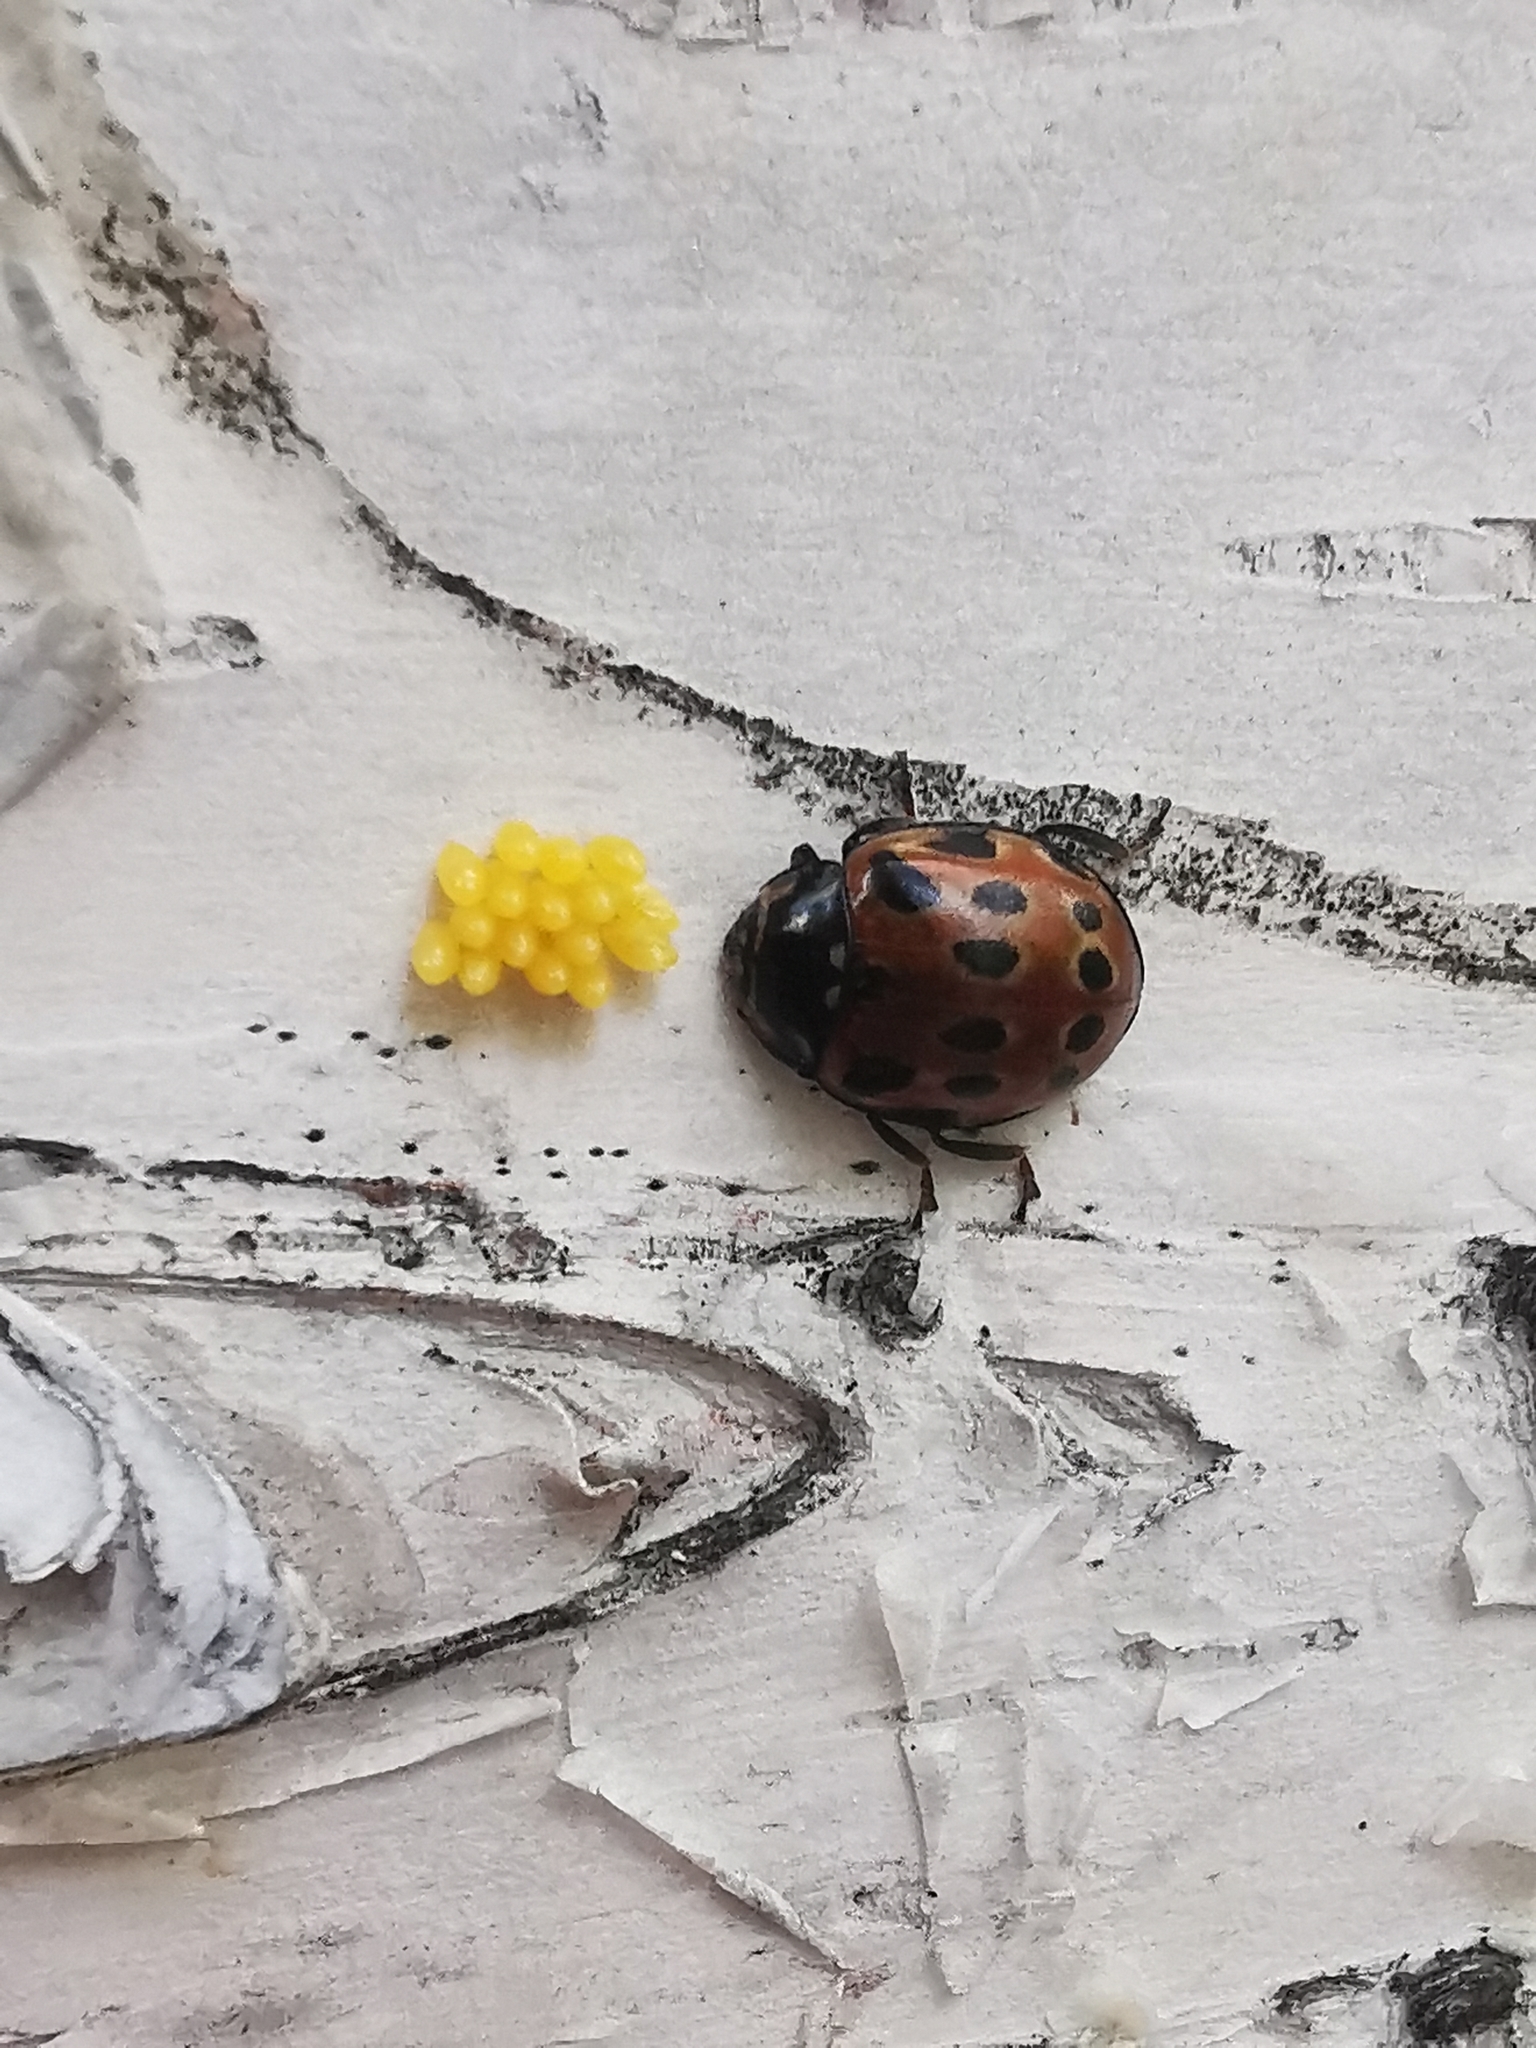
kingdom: Animalia
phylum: Arthropoda
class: Insecta
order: Coleoptera
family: Coccinellidae
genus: Anatis
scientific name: Anatis ocellata
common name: Eyed ladybird
